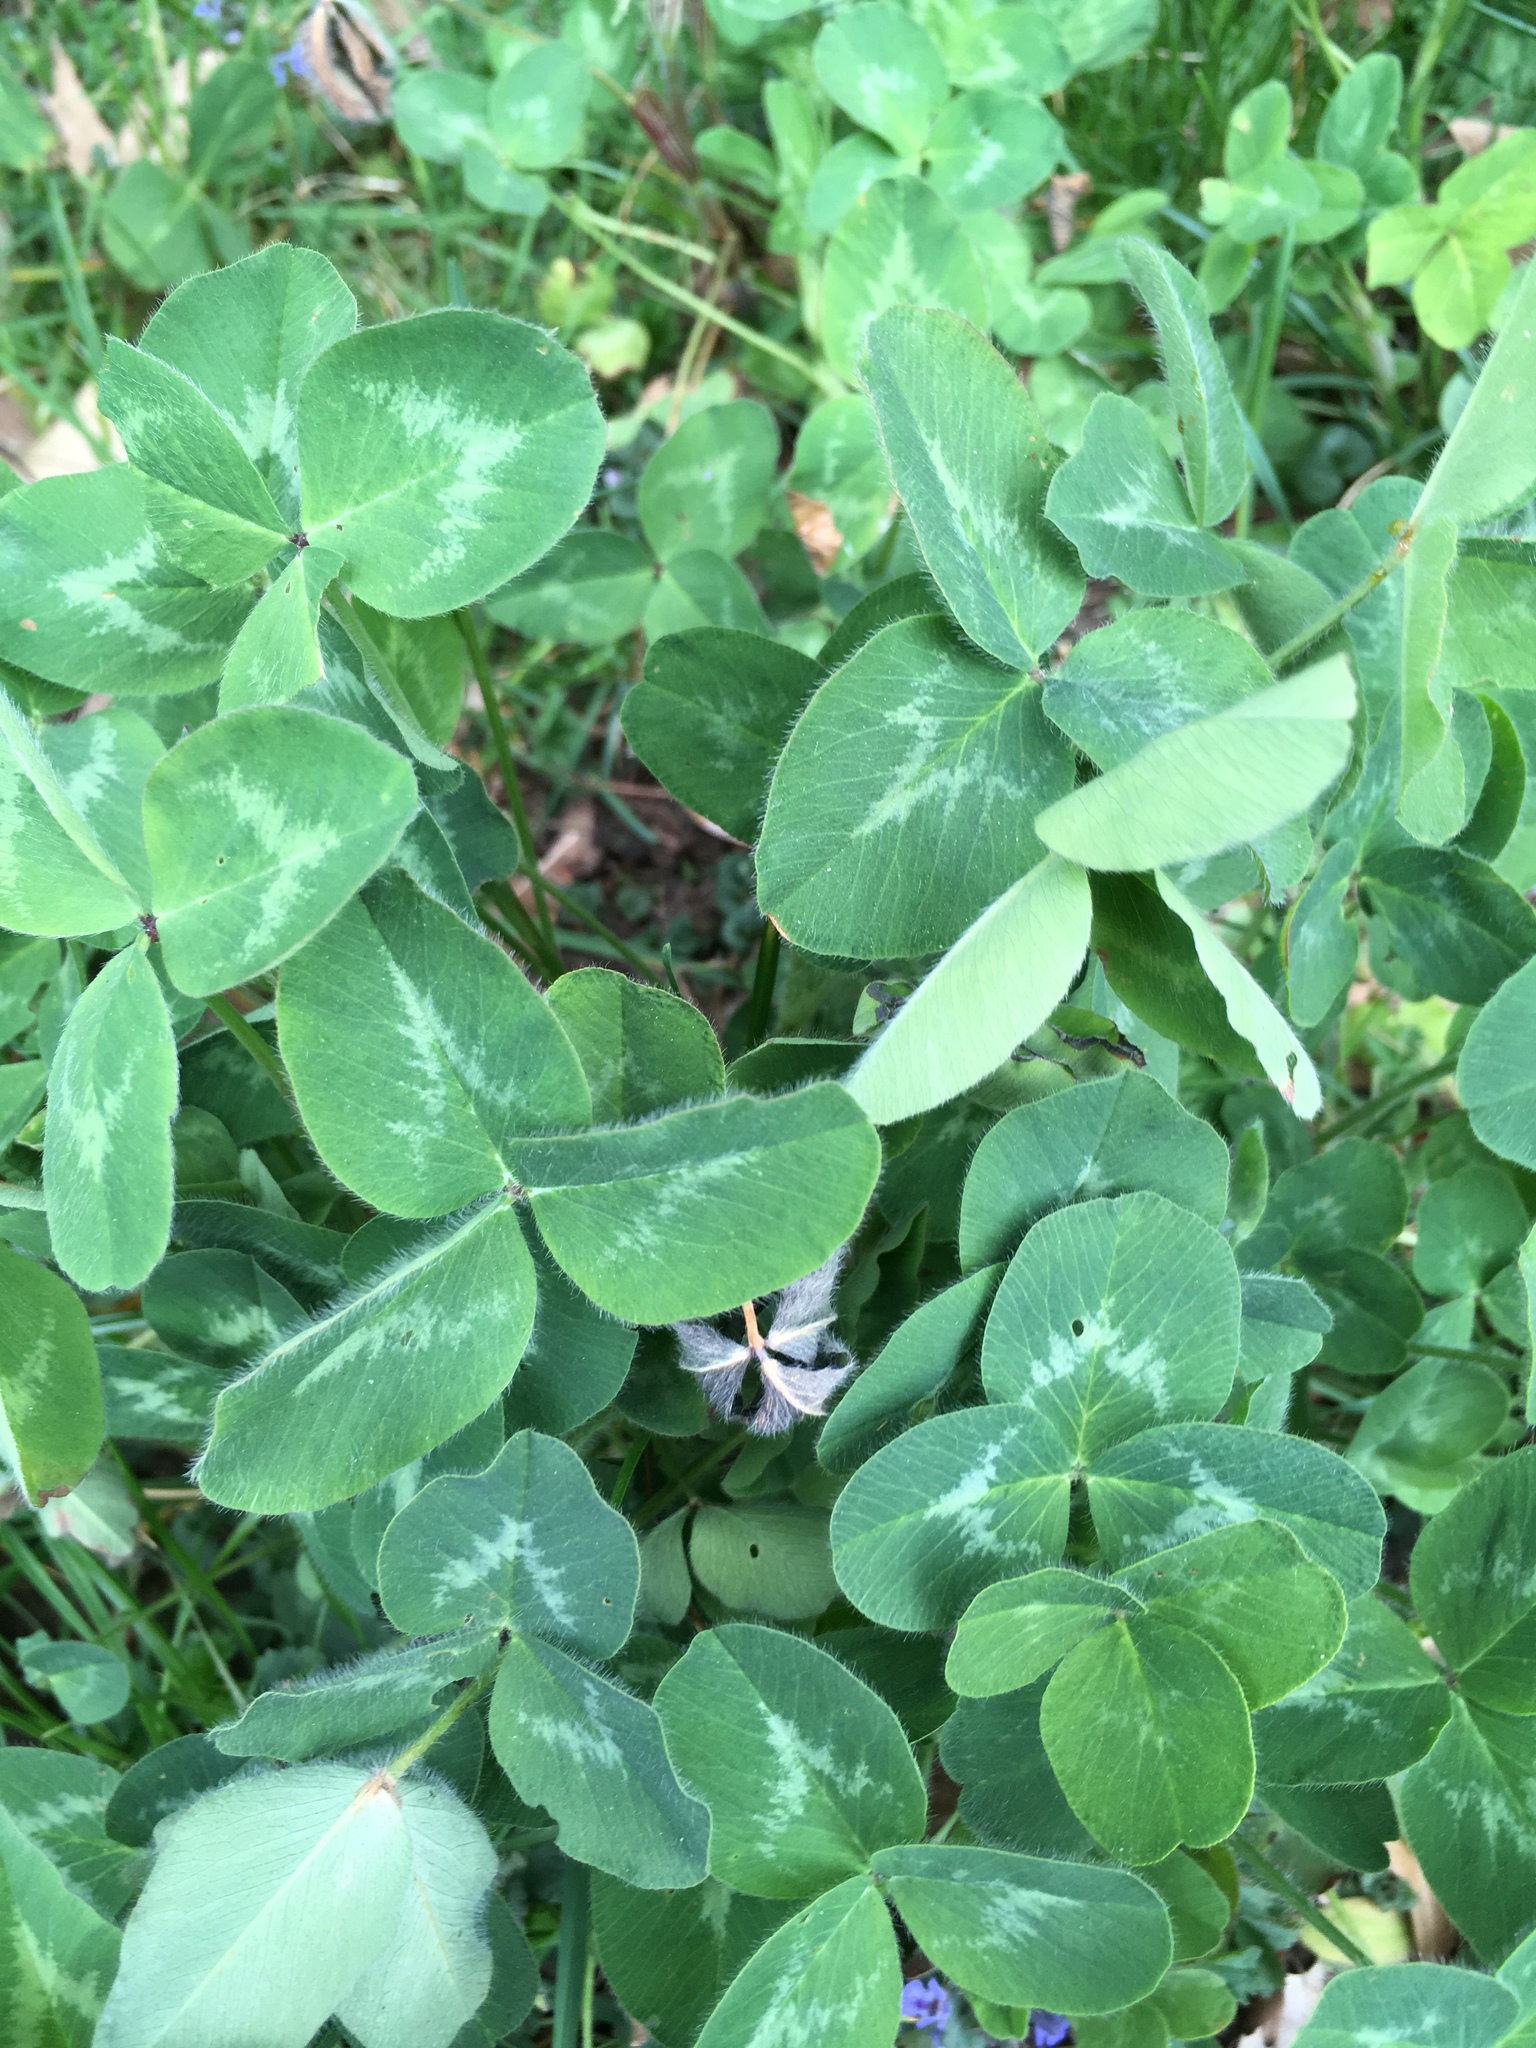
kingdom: Plantae
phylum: Tracheophyta
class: Magnoliopsida
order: Fabales
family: Fabaceae
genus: Trifolium
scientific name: Trifolium repens
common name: White clover
